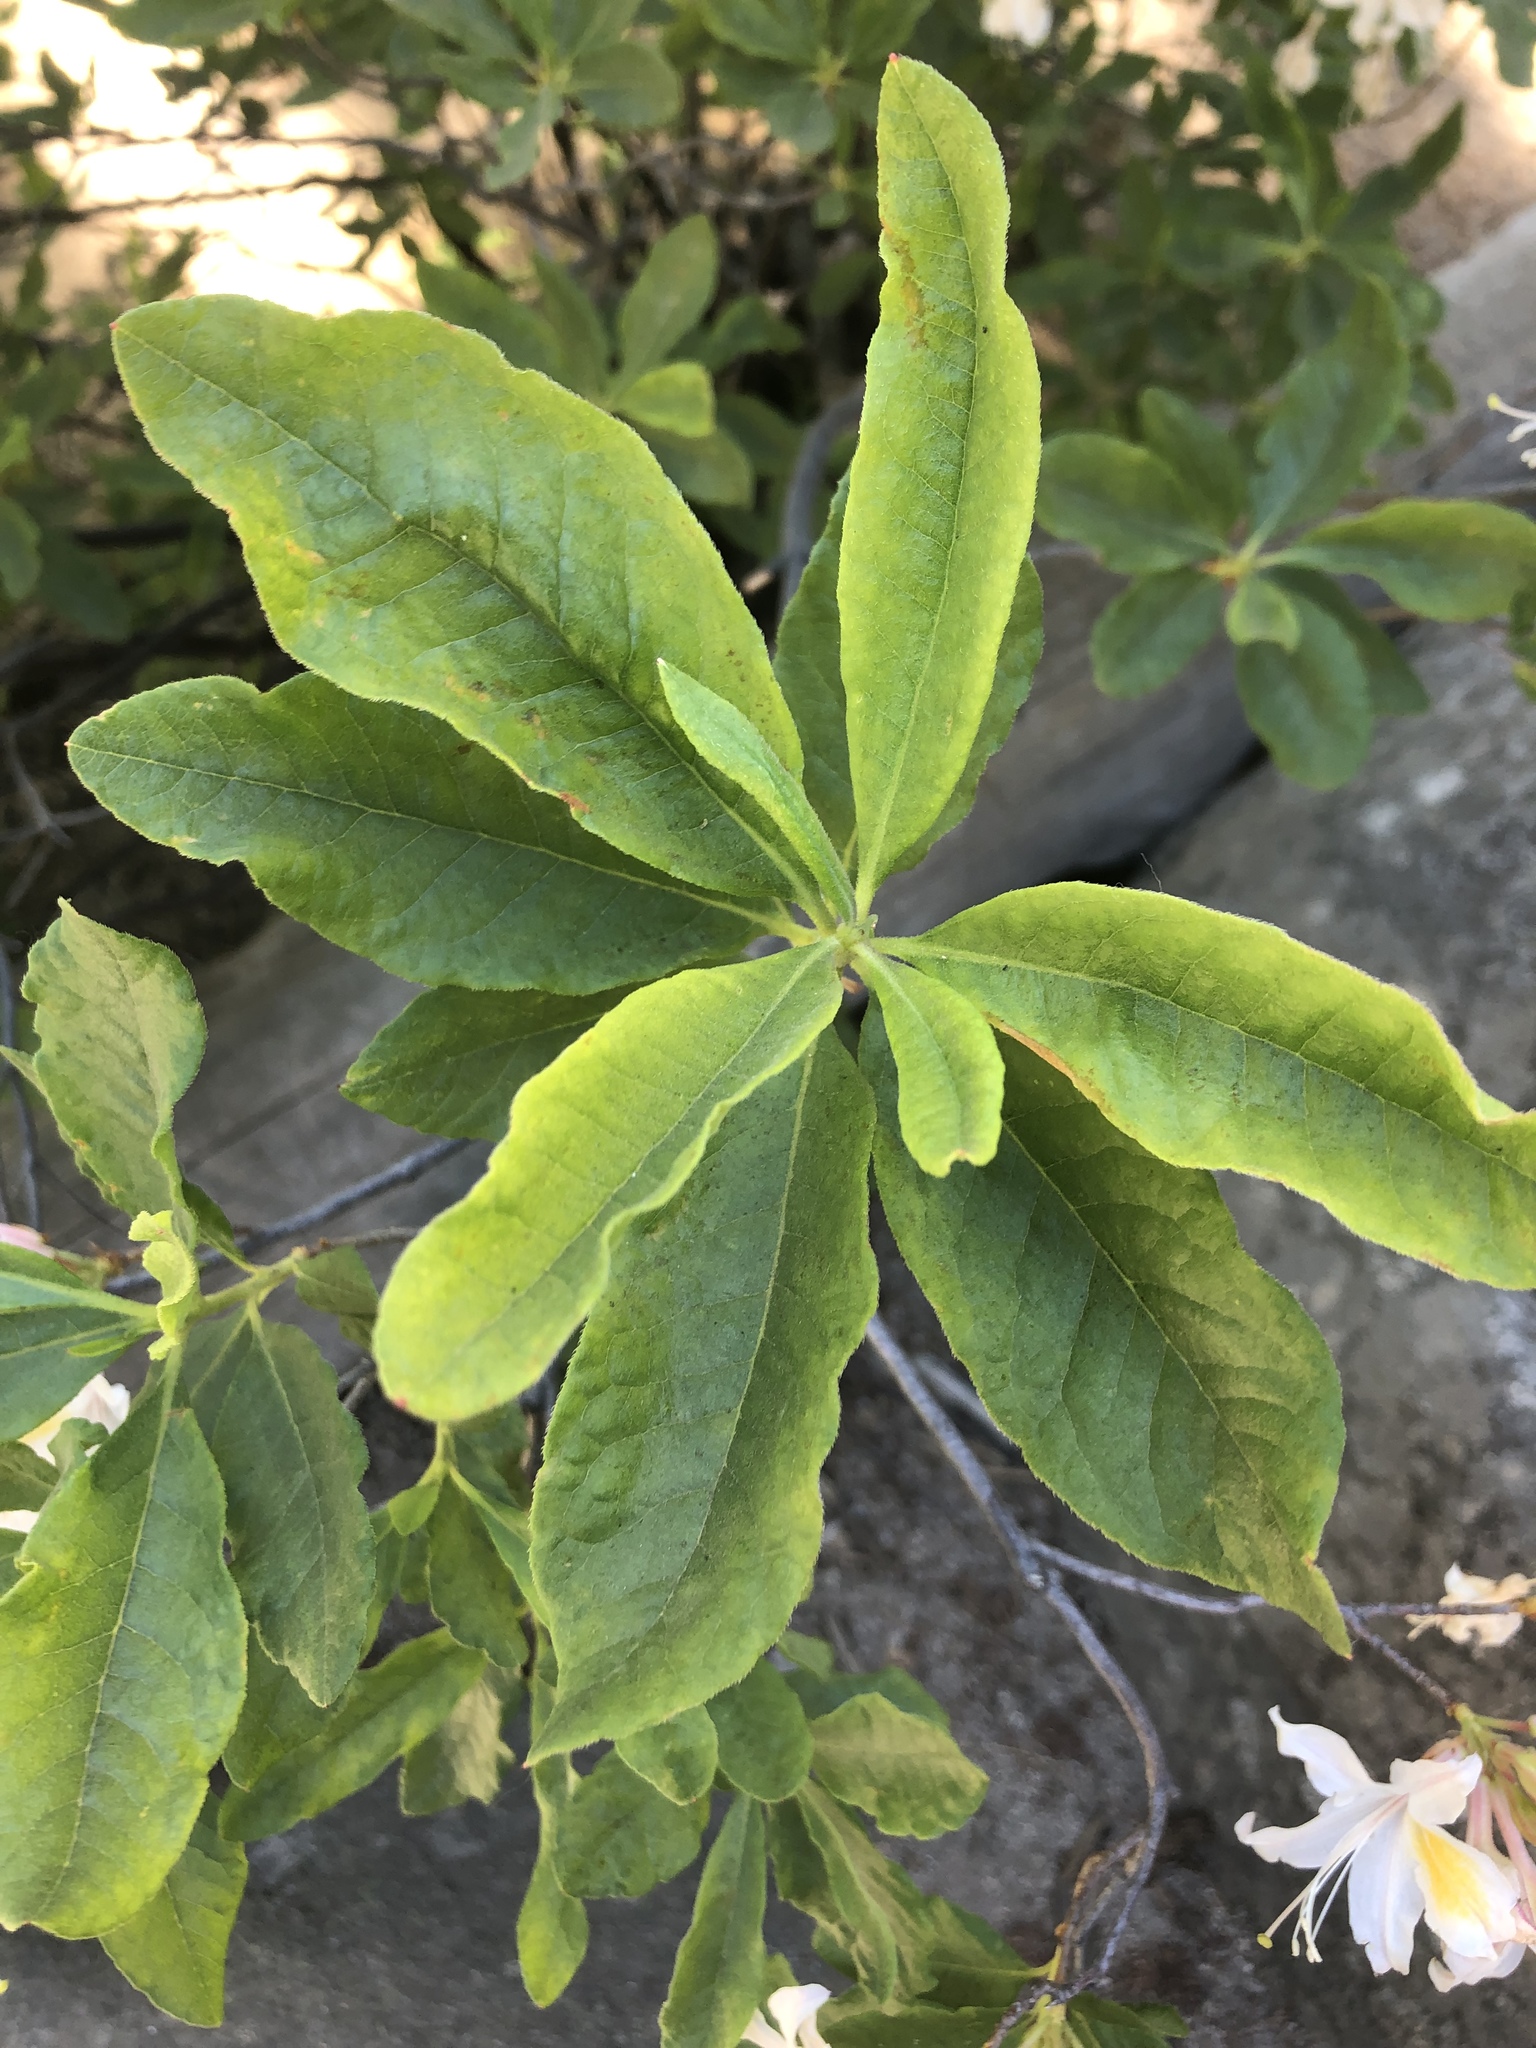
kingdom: Plantae
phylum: Tracheophyta
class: Magnoliopsida
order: Ericales
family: Ericaceae
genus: Rhododendron
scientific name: Rhododendron occidentale
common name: Western azalea
